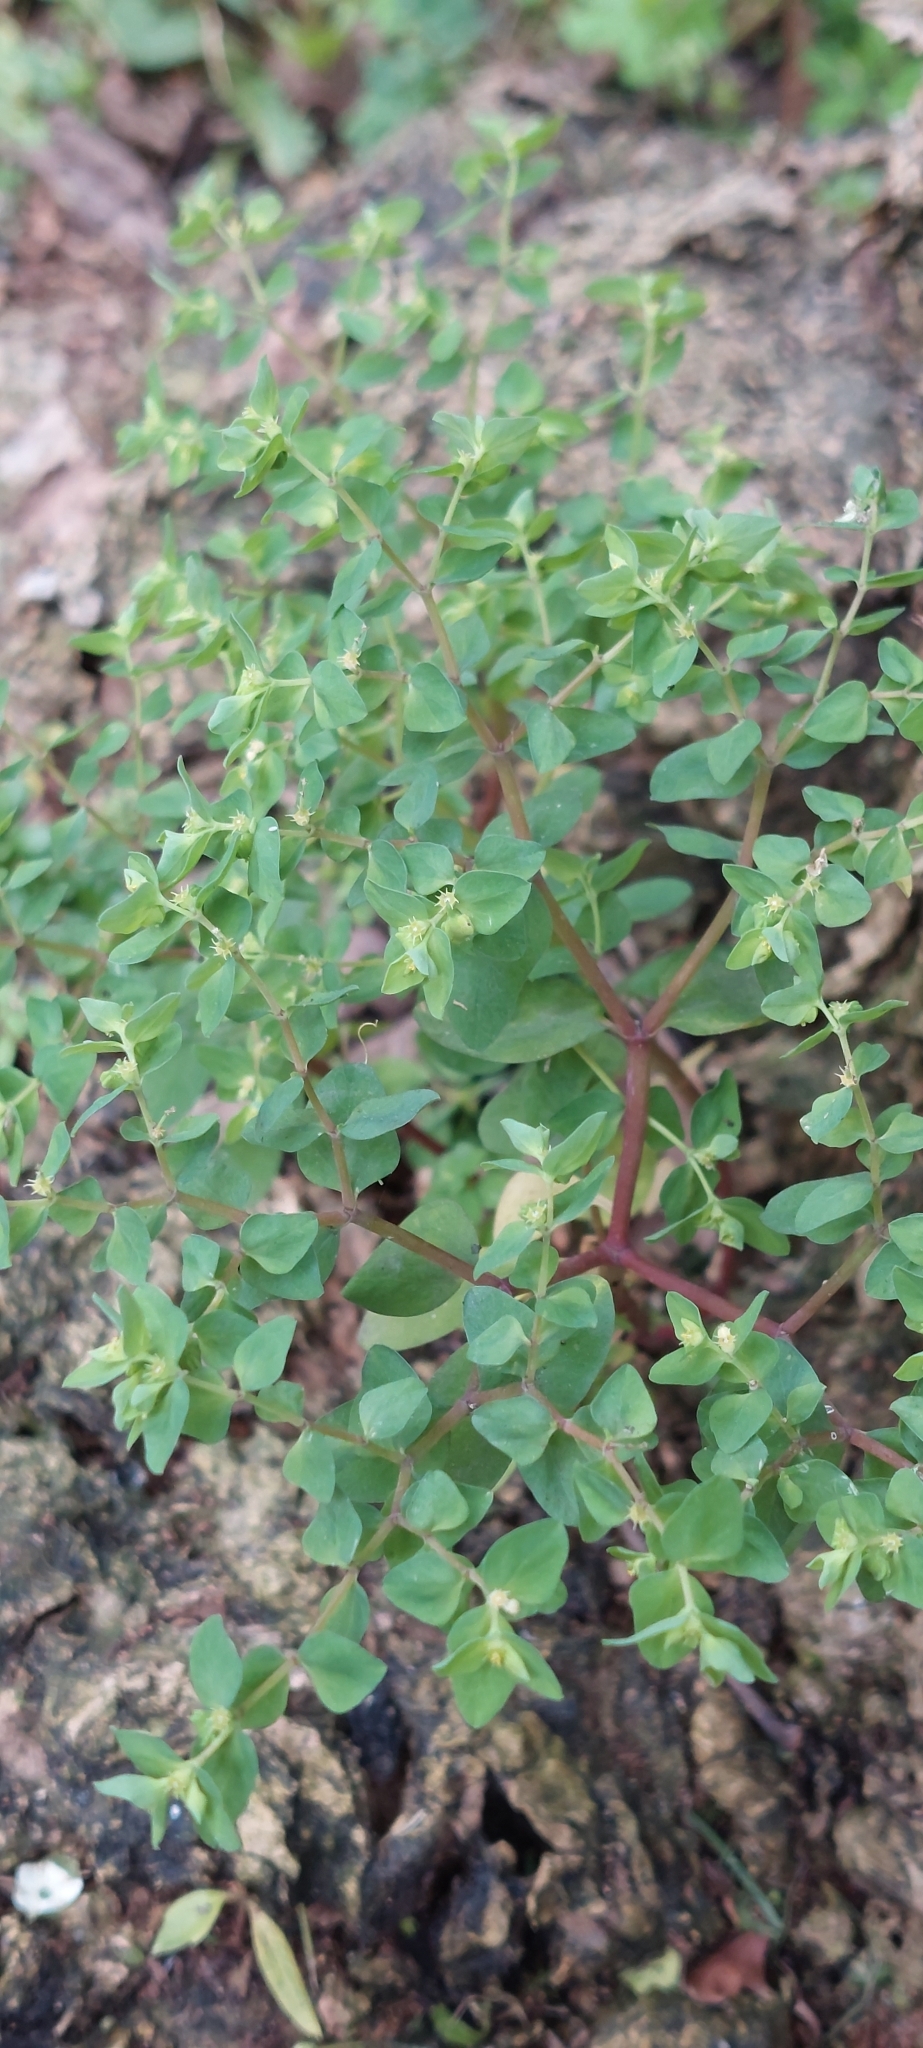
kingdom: Plantae
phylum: Tracheophyta
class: Magnoliopsida
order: Malpighiales
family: Euphorbiaceae
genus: Euphorbia
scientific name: Euphorbia peplus
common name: Petty spurge
